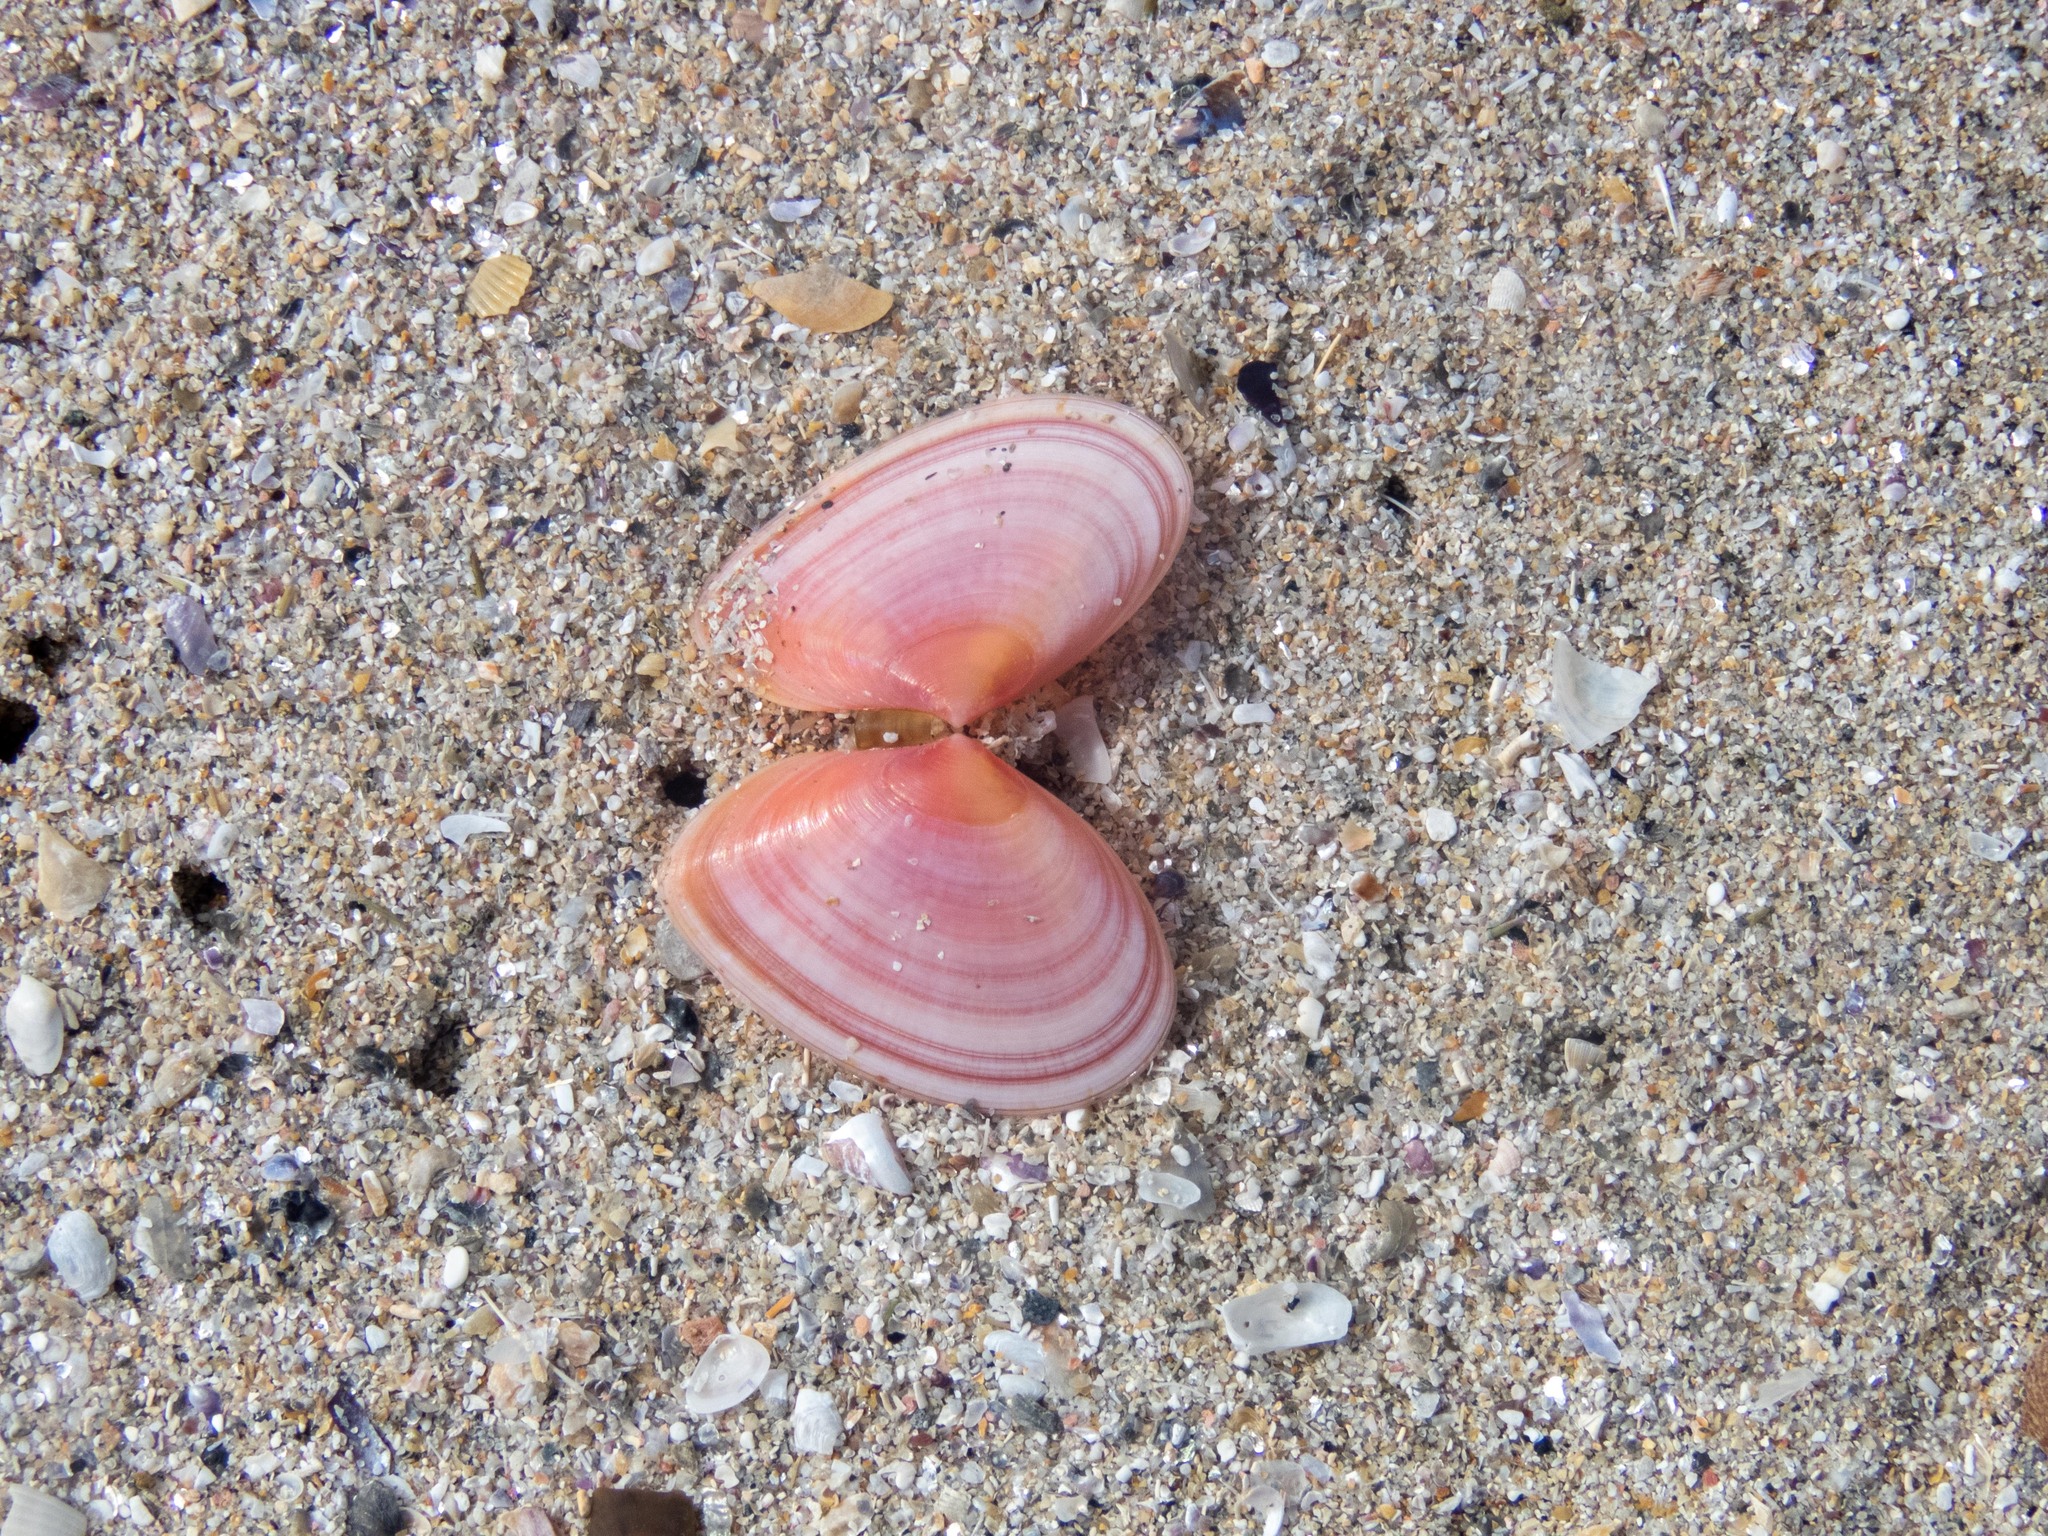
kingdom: Animalia
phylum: Mollusca
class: Bivalvia
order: Cardiida
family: Tellinidae
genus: Macomangulus
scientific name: Macomangulus tenuis
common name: Thin tellin
